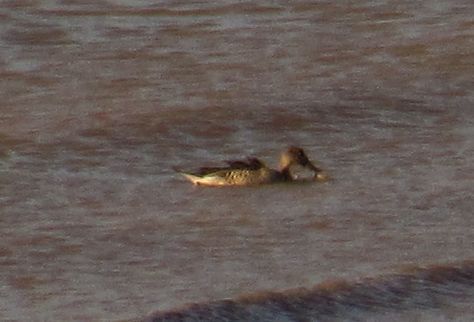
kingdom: Animalia
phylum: Chordata
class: Aves
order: Anseriformes
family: Anatidae
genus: Anas
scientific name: Anas acuta
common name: Northern pintail
